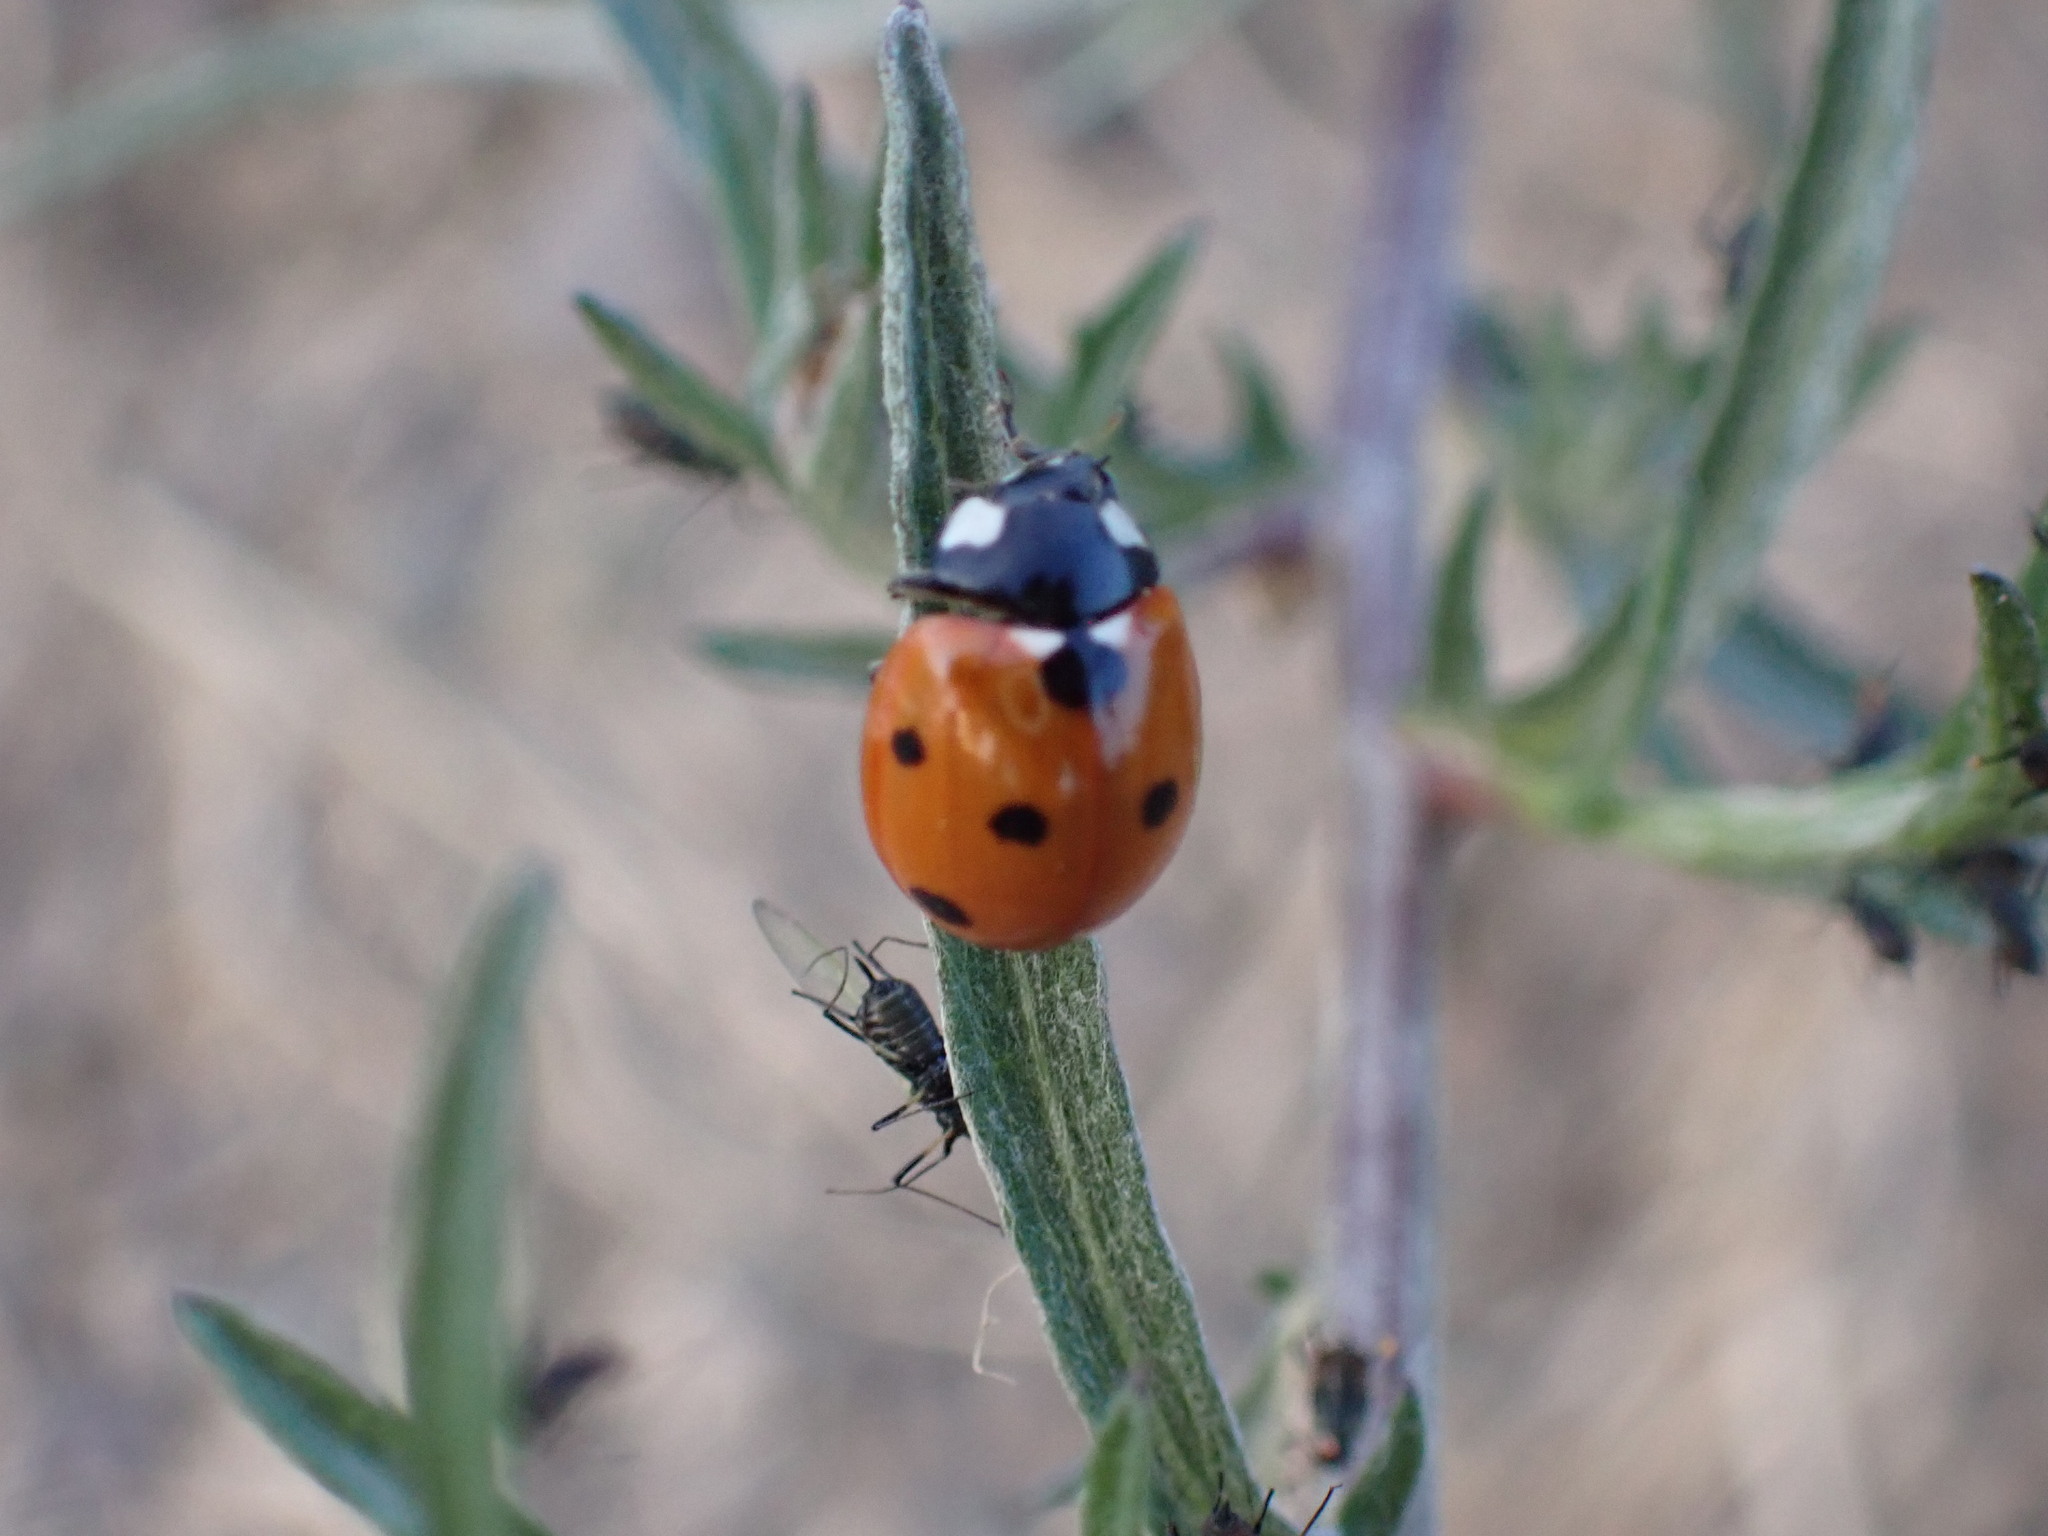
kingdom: Animalia
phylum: Arthropoda
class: Insecta
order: Coleoptera
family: Coccinellidae
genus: Coccinella
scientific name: Coccinella septempunctata
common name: Sevenspotted lady beetle
